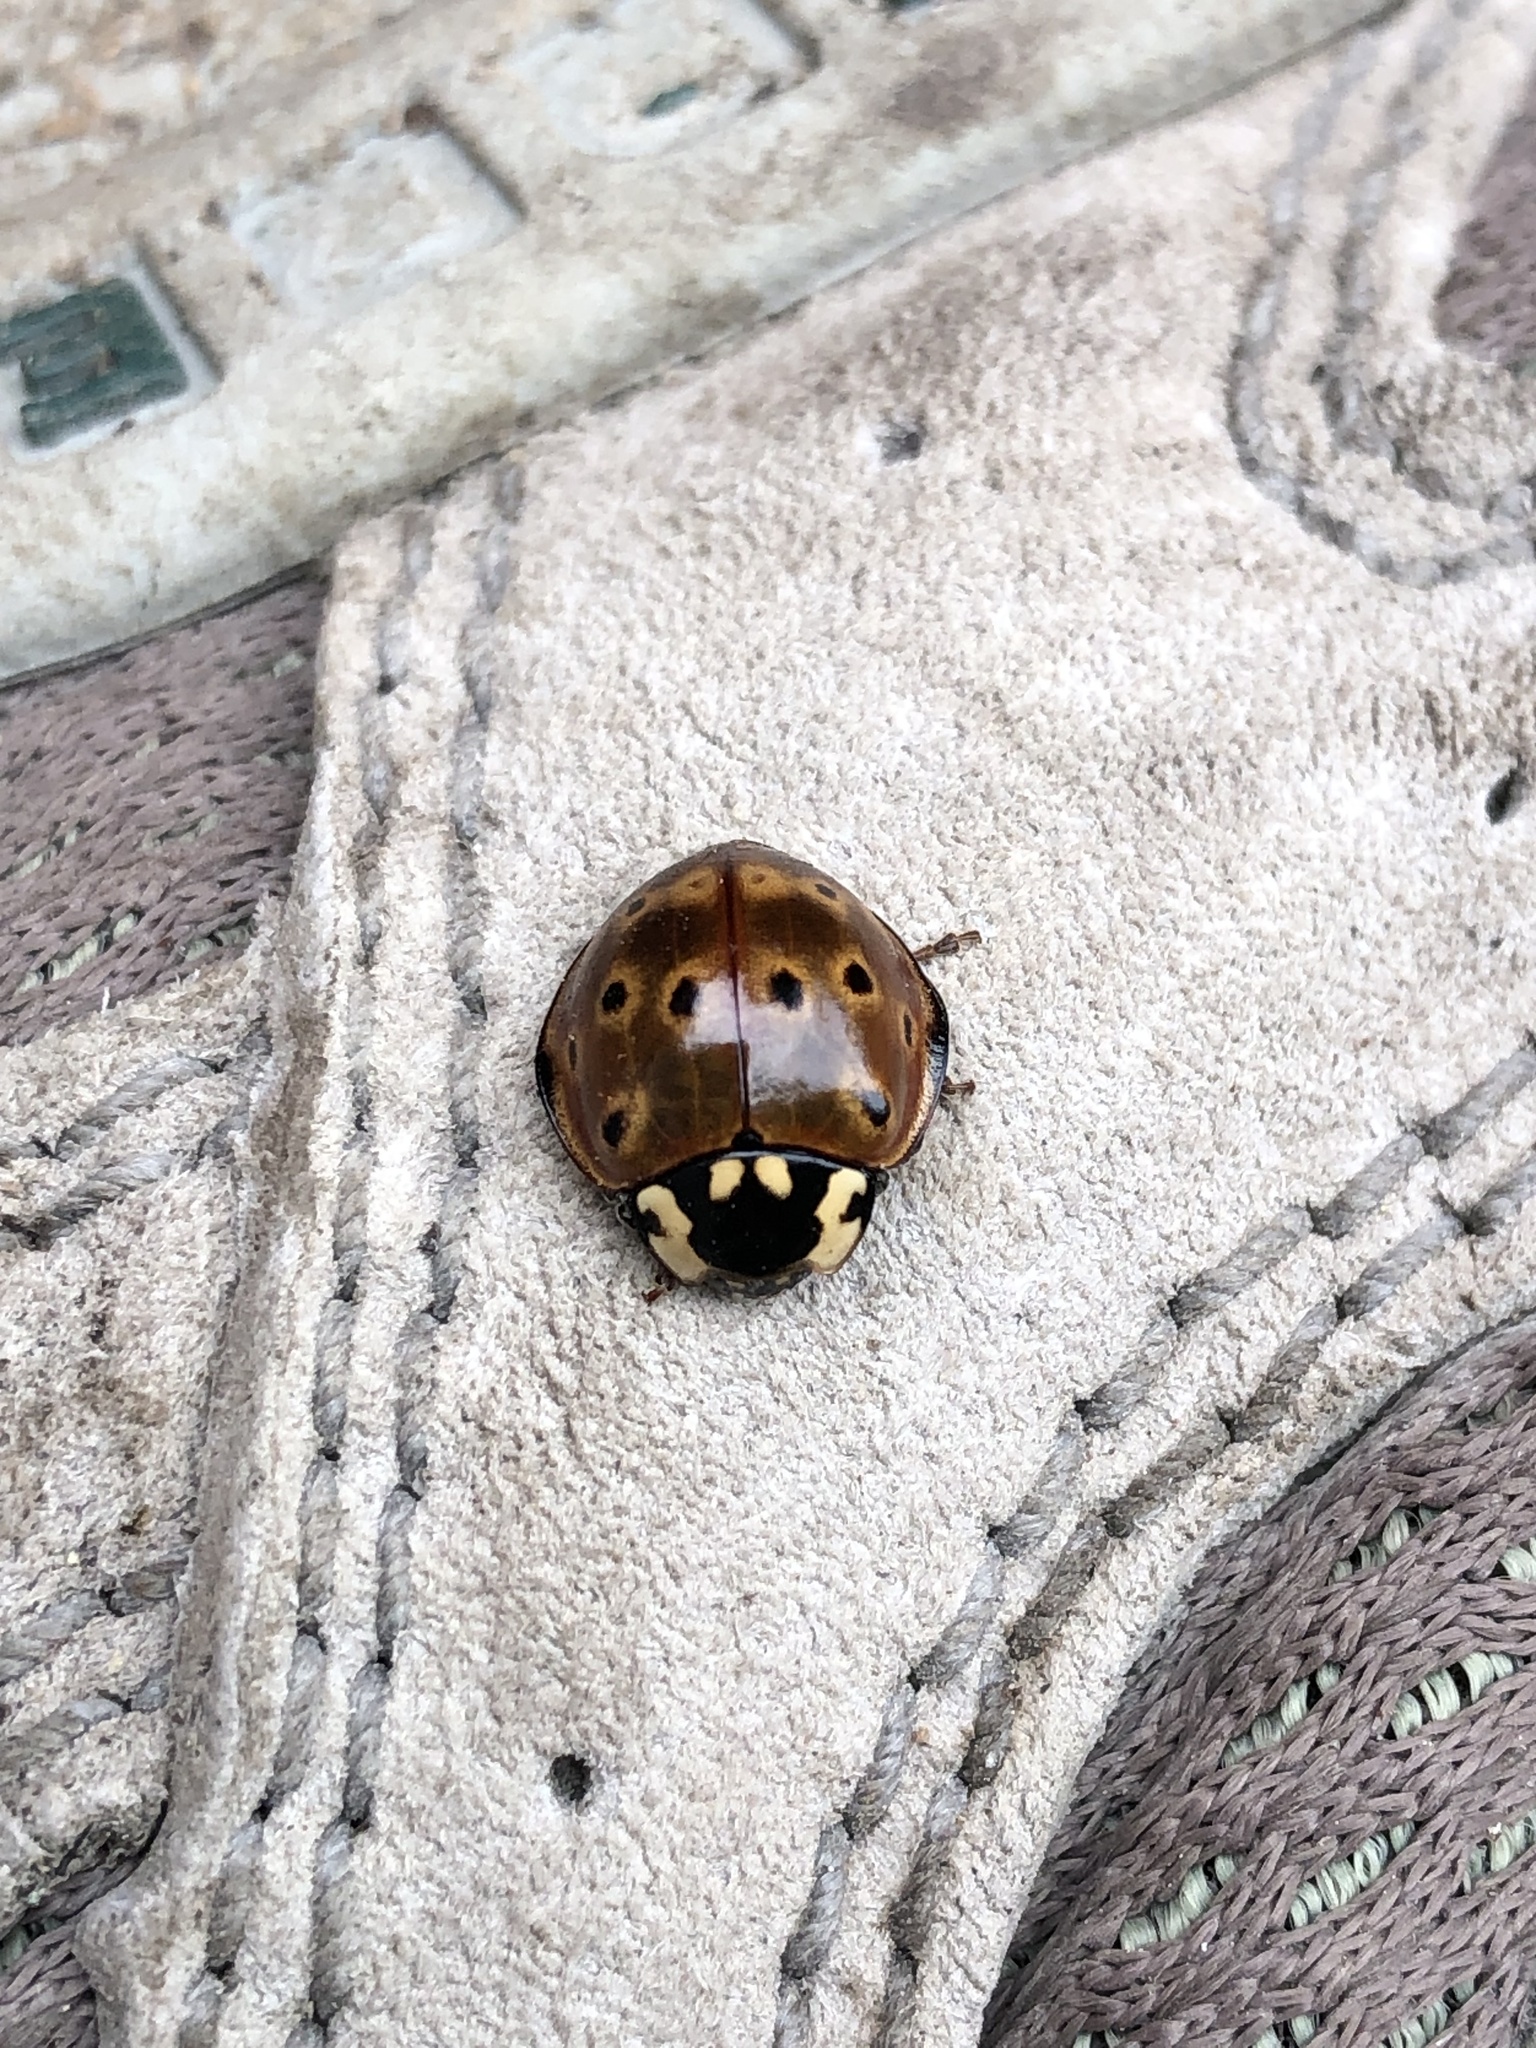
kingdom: Animalia
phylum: Arthropoda
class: Insecta
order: Coleoptera
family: Coccinellidae
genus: Anatis
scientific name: Anatis rathvoni
